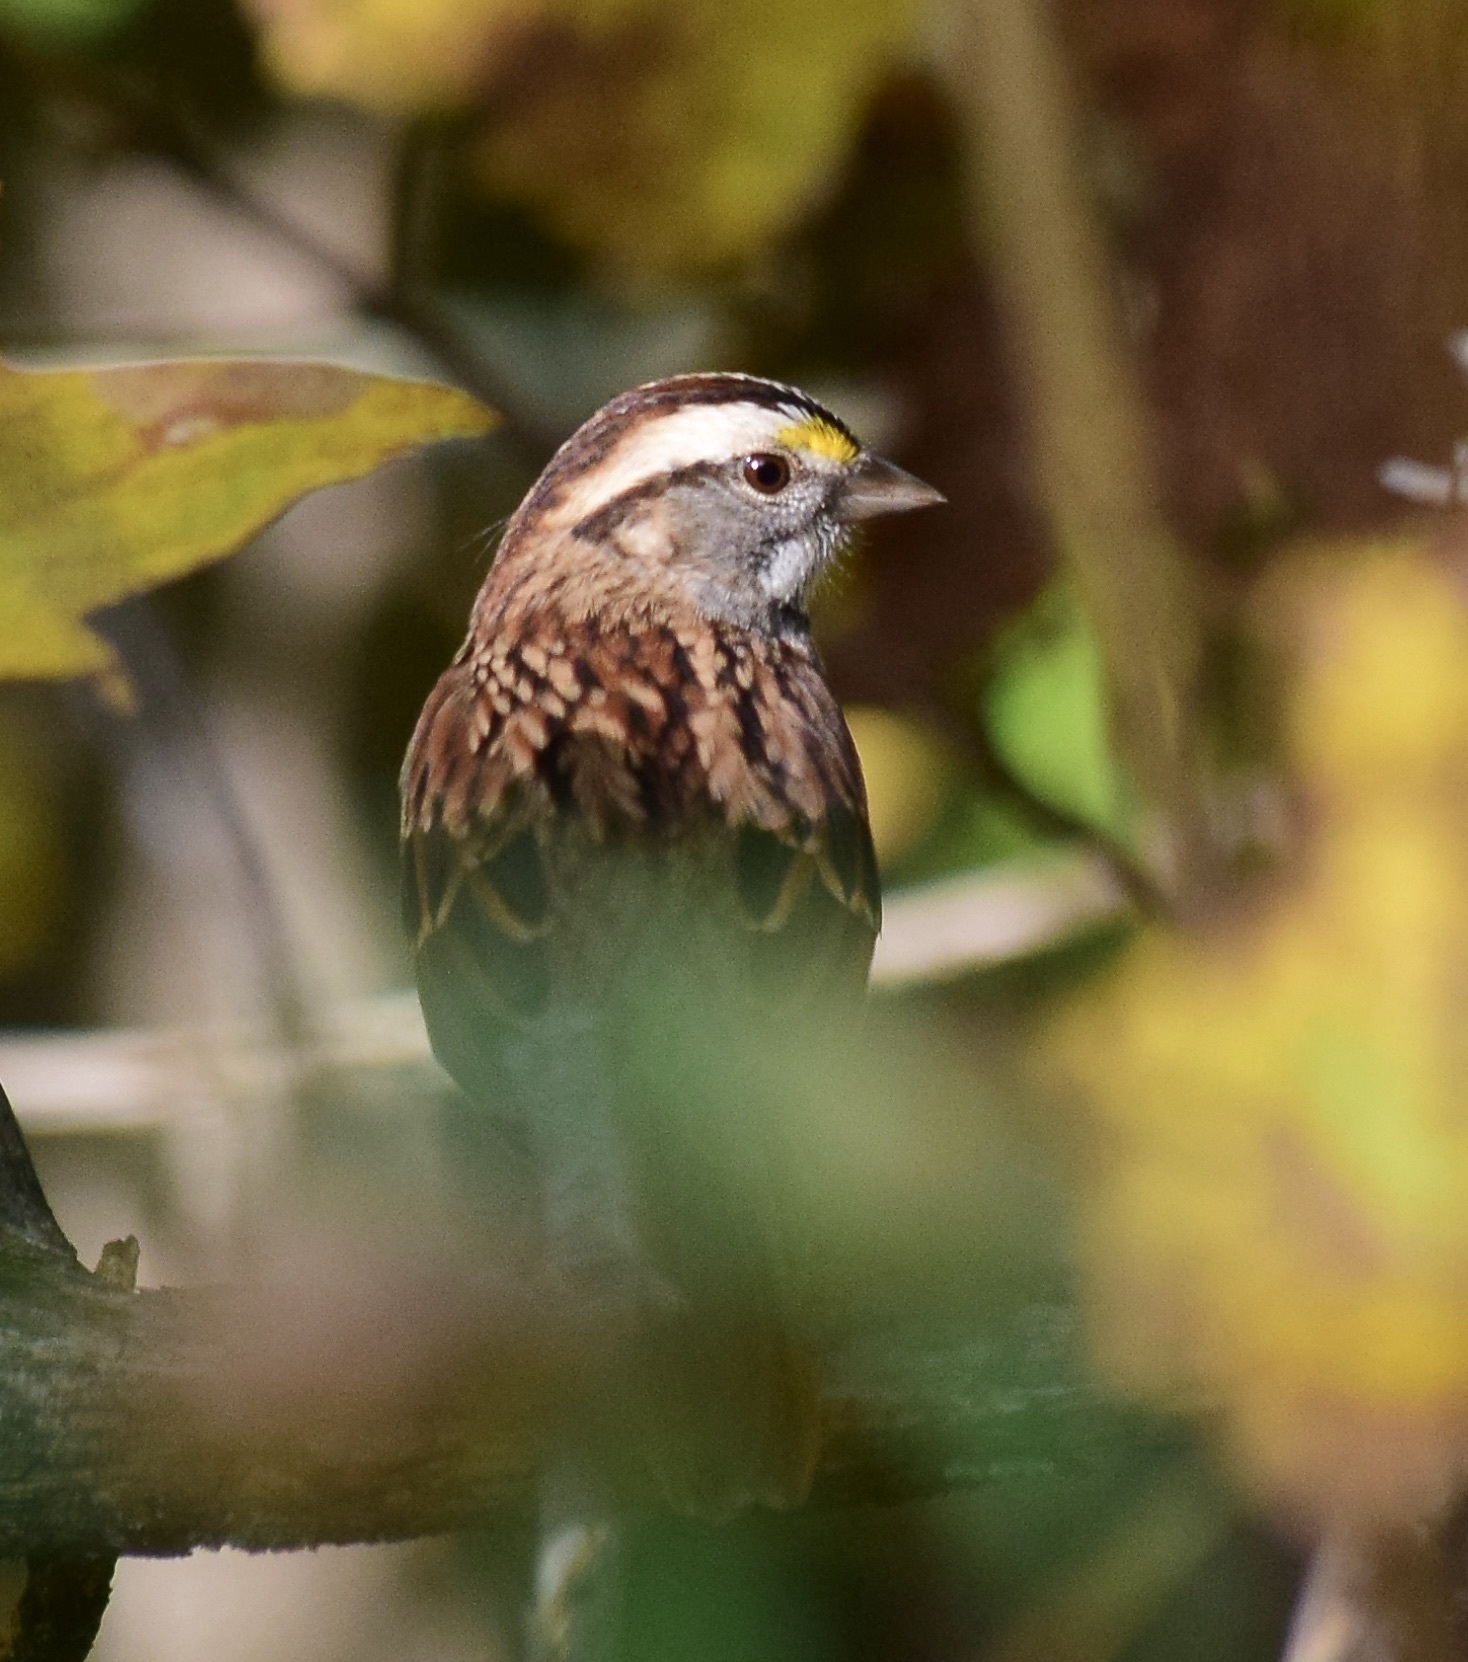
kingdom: Animalia
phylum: Chordata
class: Aves
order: Passeriformes
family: Passerellidae
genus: Zonotrichia
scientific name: Zonotrichia albicollis
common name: White-throated sparrow
